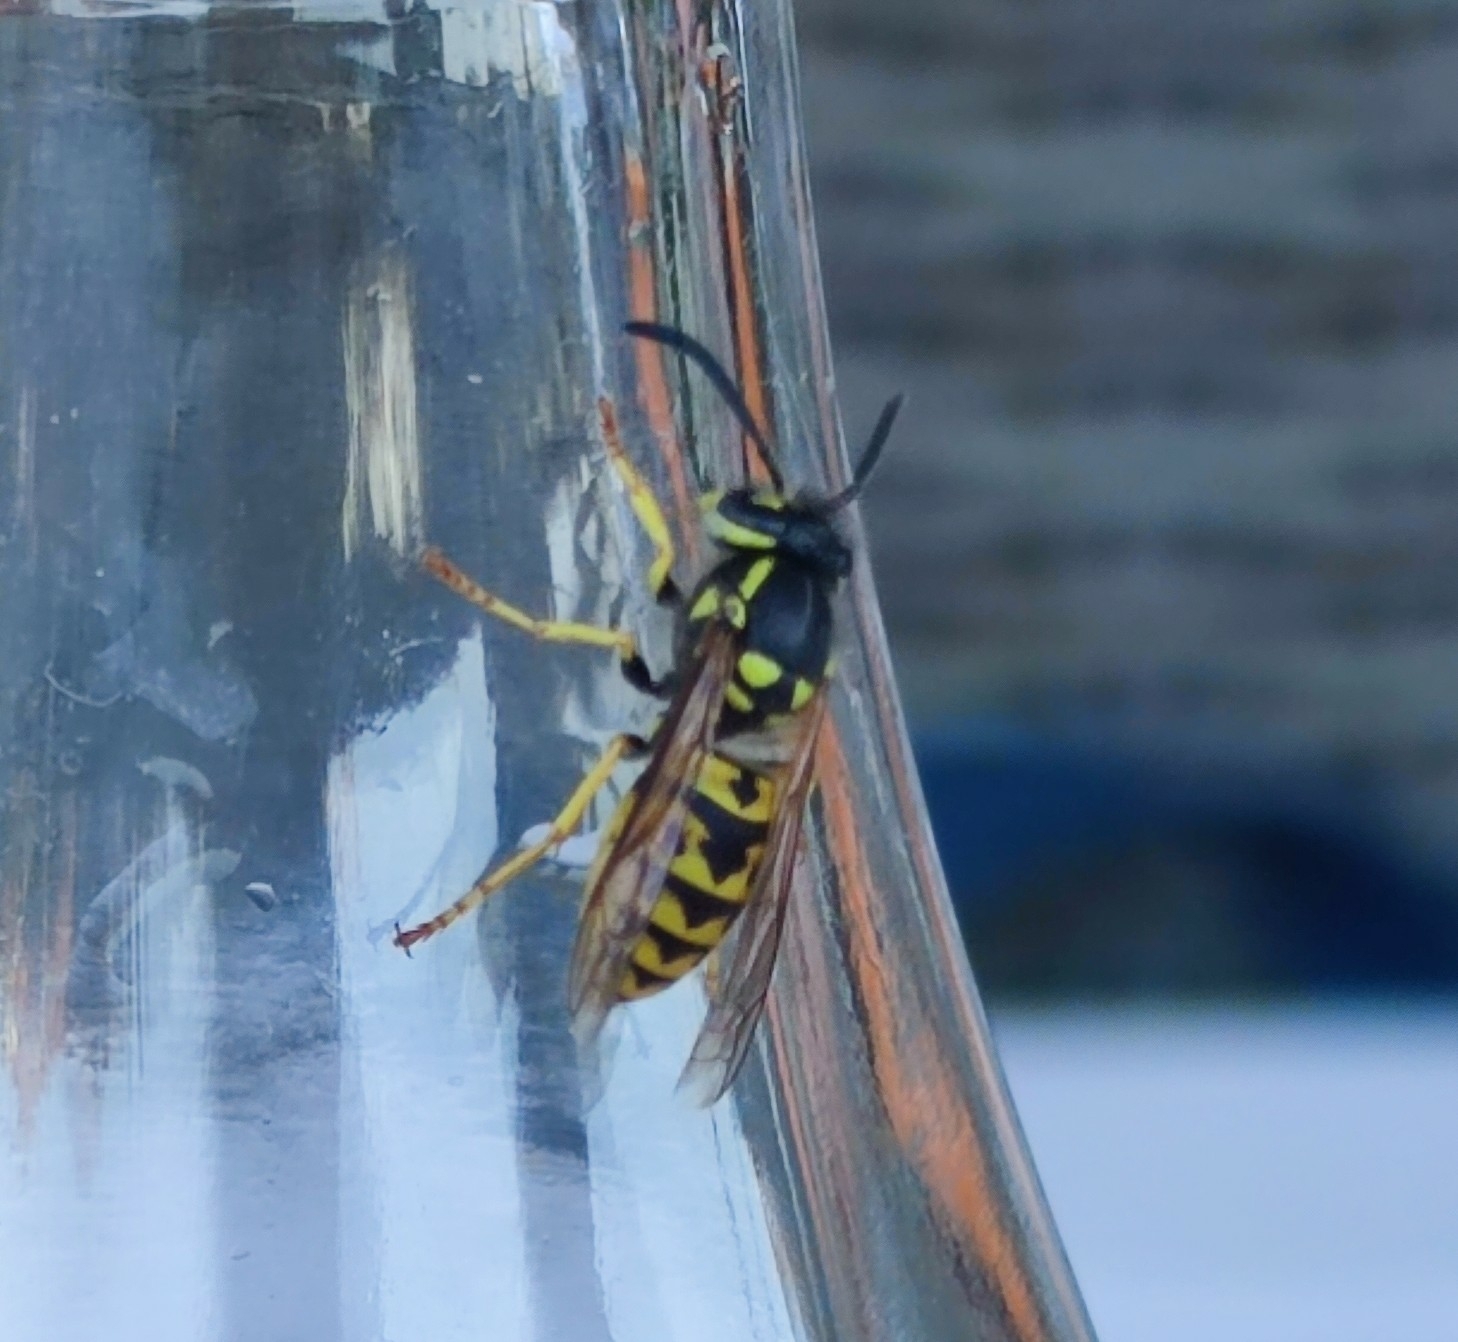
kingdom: Animalia
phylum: Arthropoda
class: Insecta
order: Hymenoptera
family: Vespidae
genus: Vespula
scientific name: Vespula germanica
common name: German wasp
